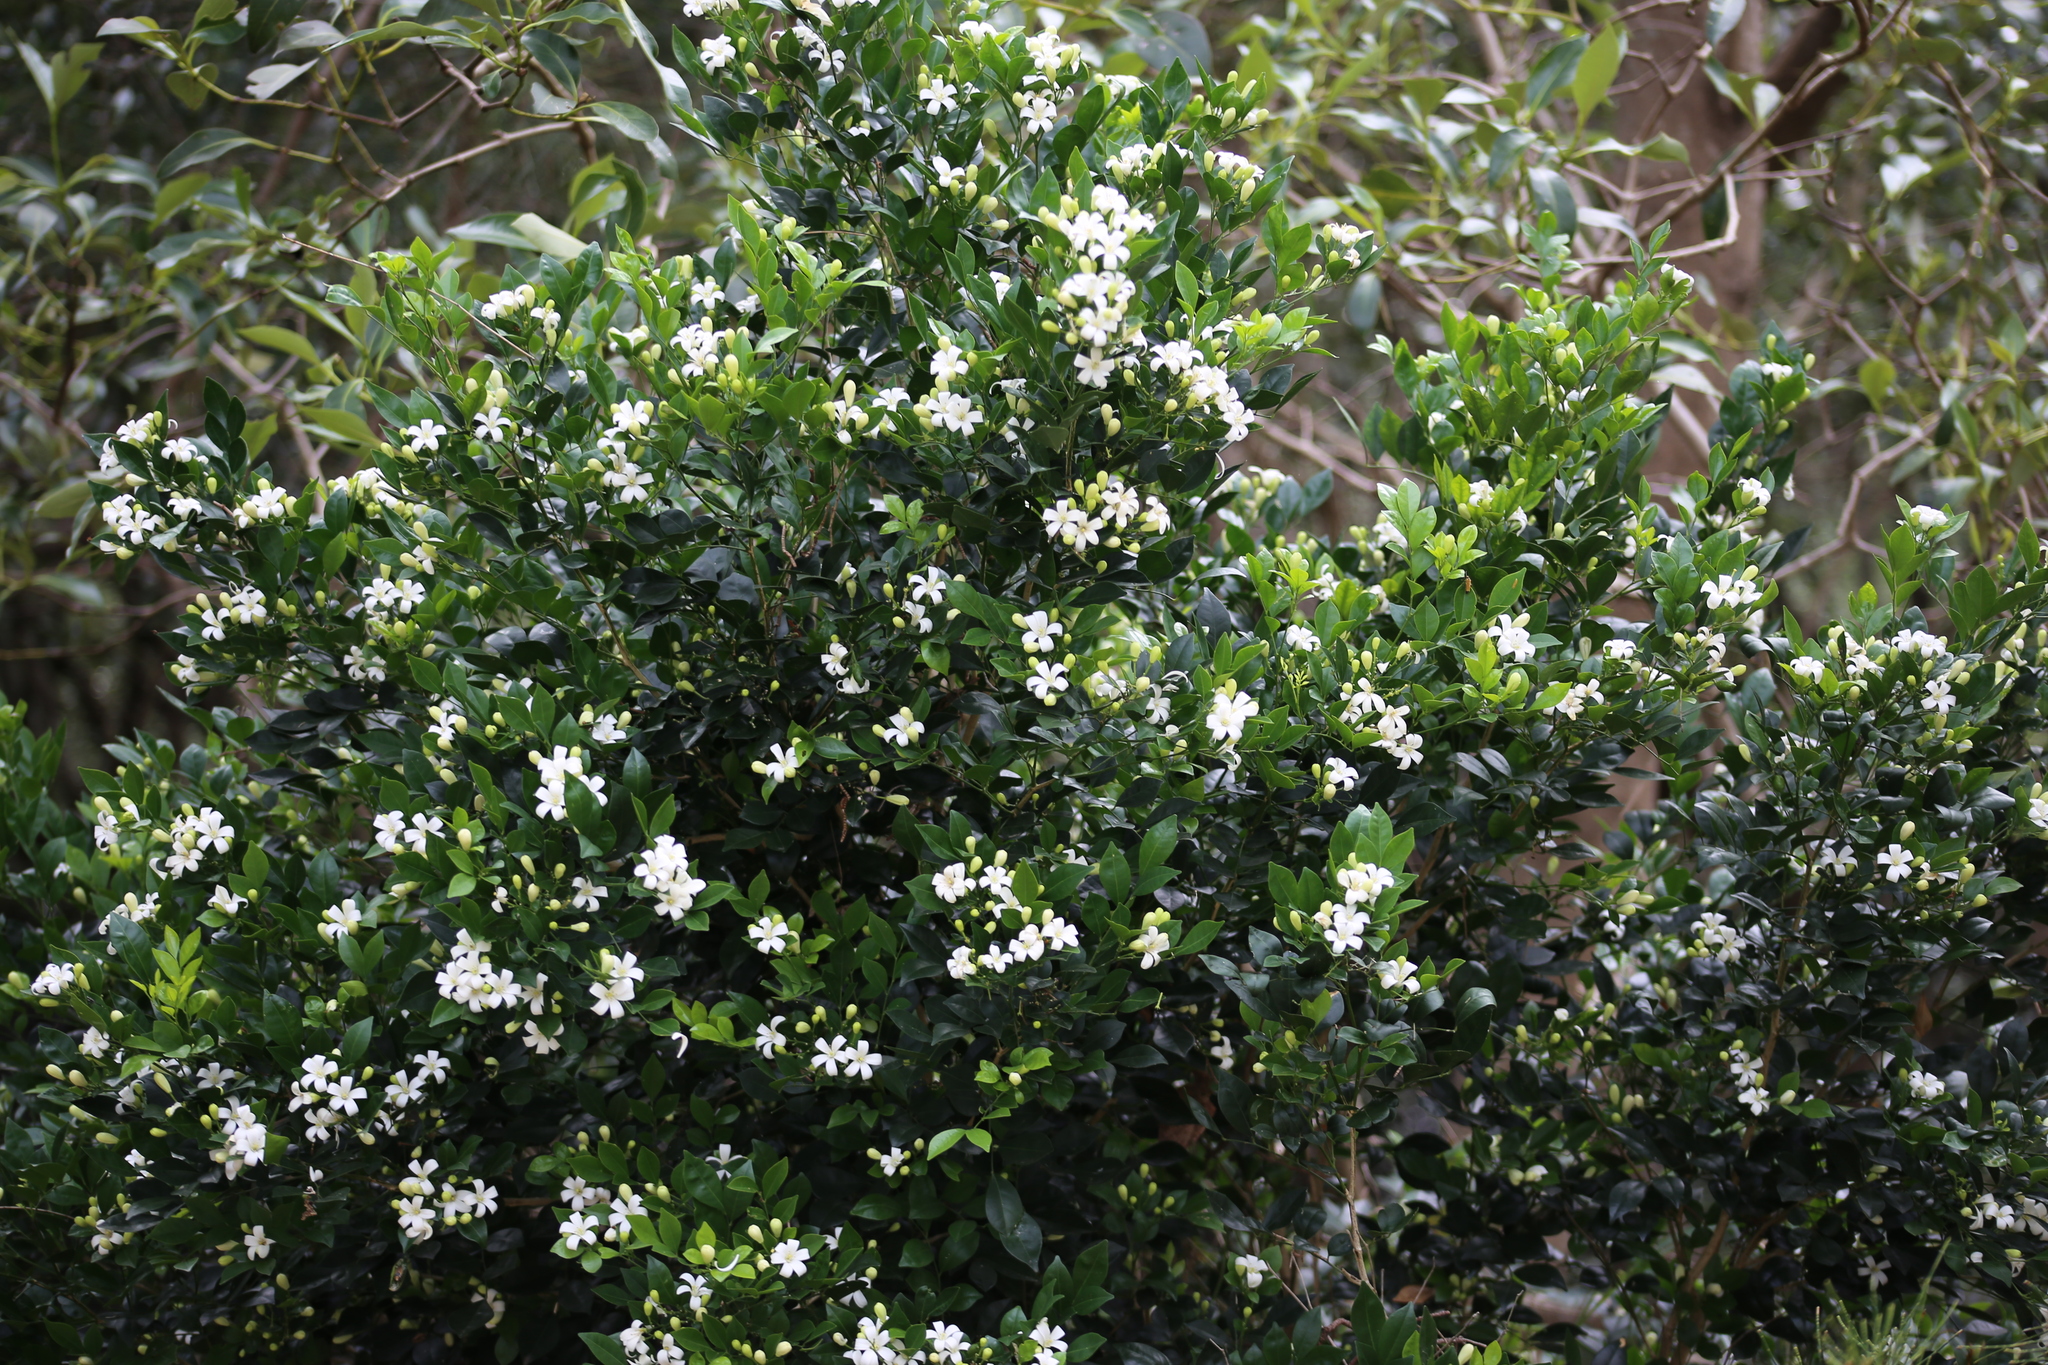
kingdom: Plantae
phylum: Tracheophyta
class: Magnoliopsida
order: Sapindales
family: Rutaceae
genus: Murraya
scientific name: Murraya paniculata
